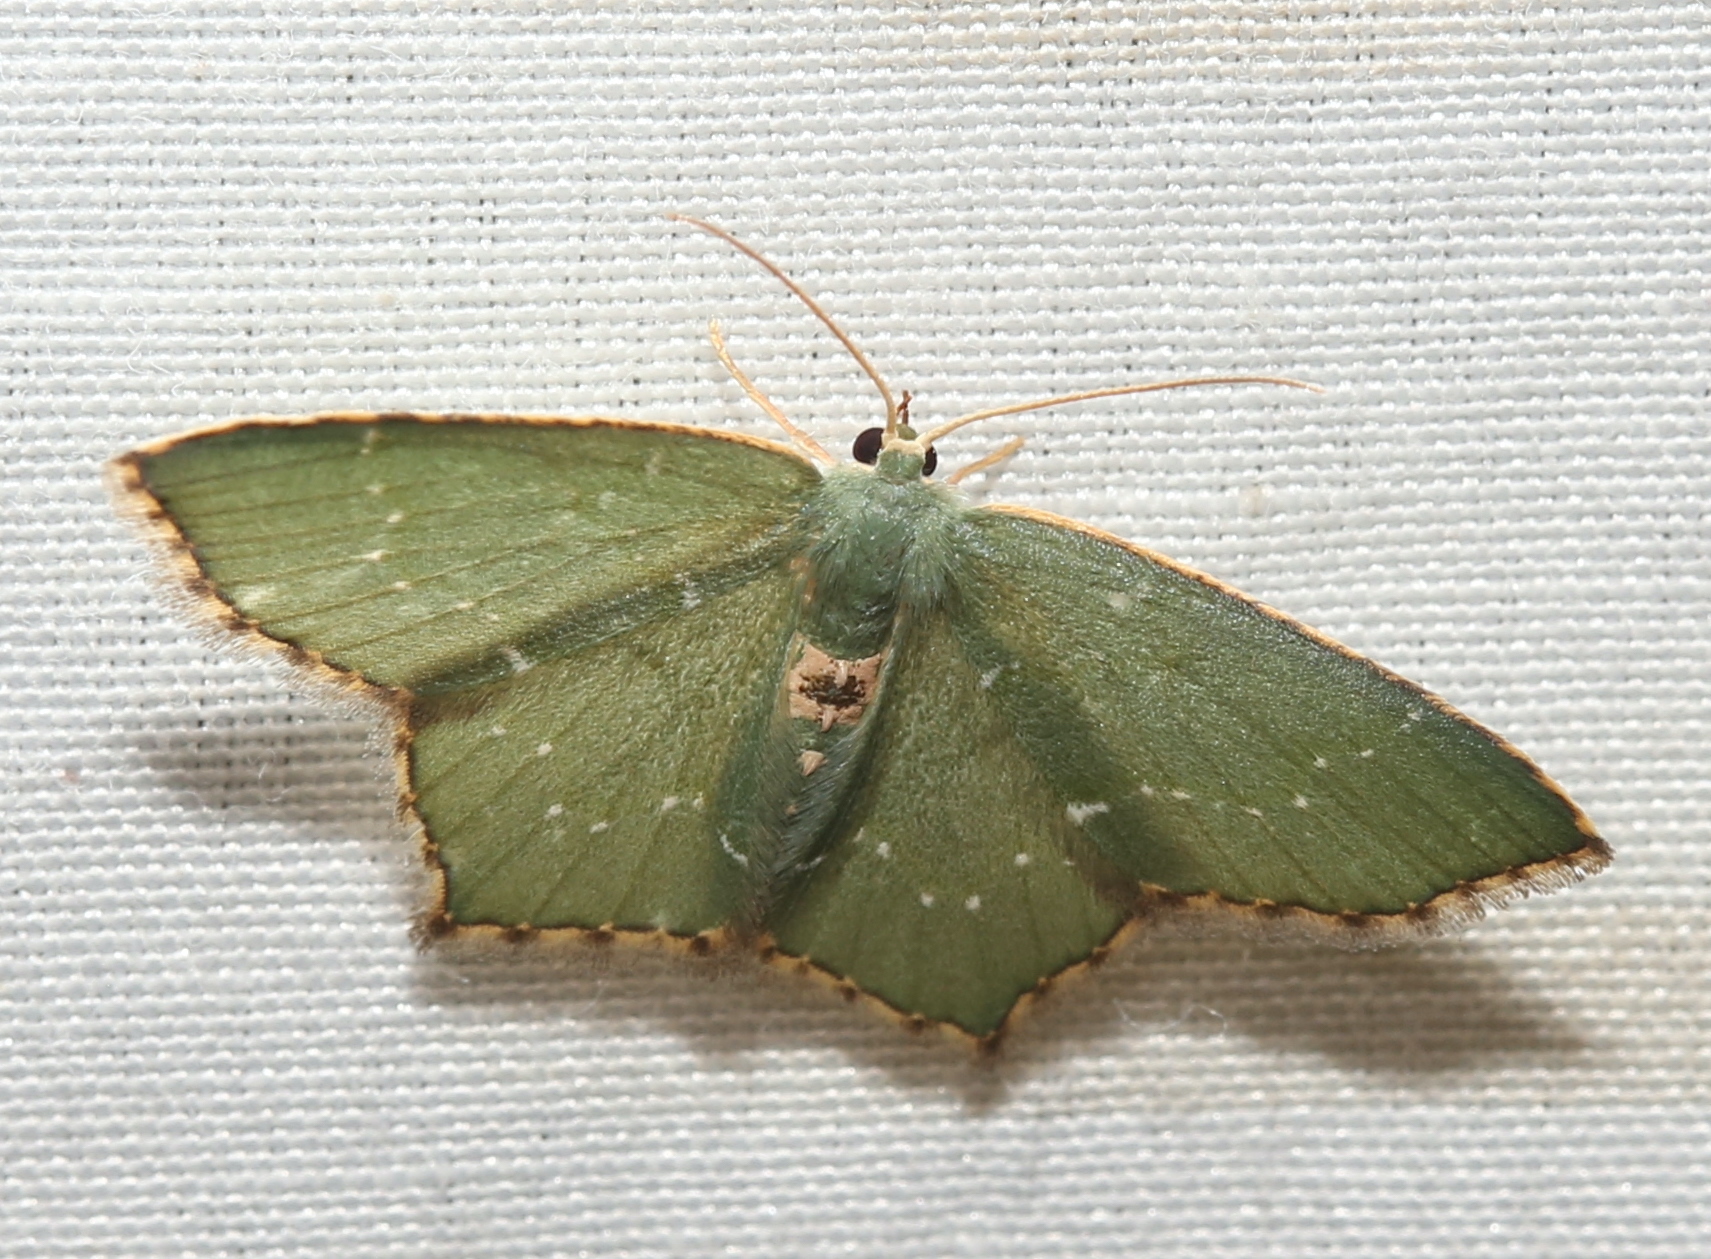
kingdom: Animalia
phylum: Arthropoda
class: Insecta
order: Lepidoptera
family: Geometridae
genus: Chloropteryx
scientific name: Chloropteryx tepperaria
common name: Angle winged emerald moth
